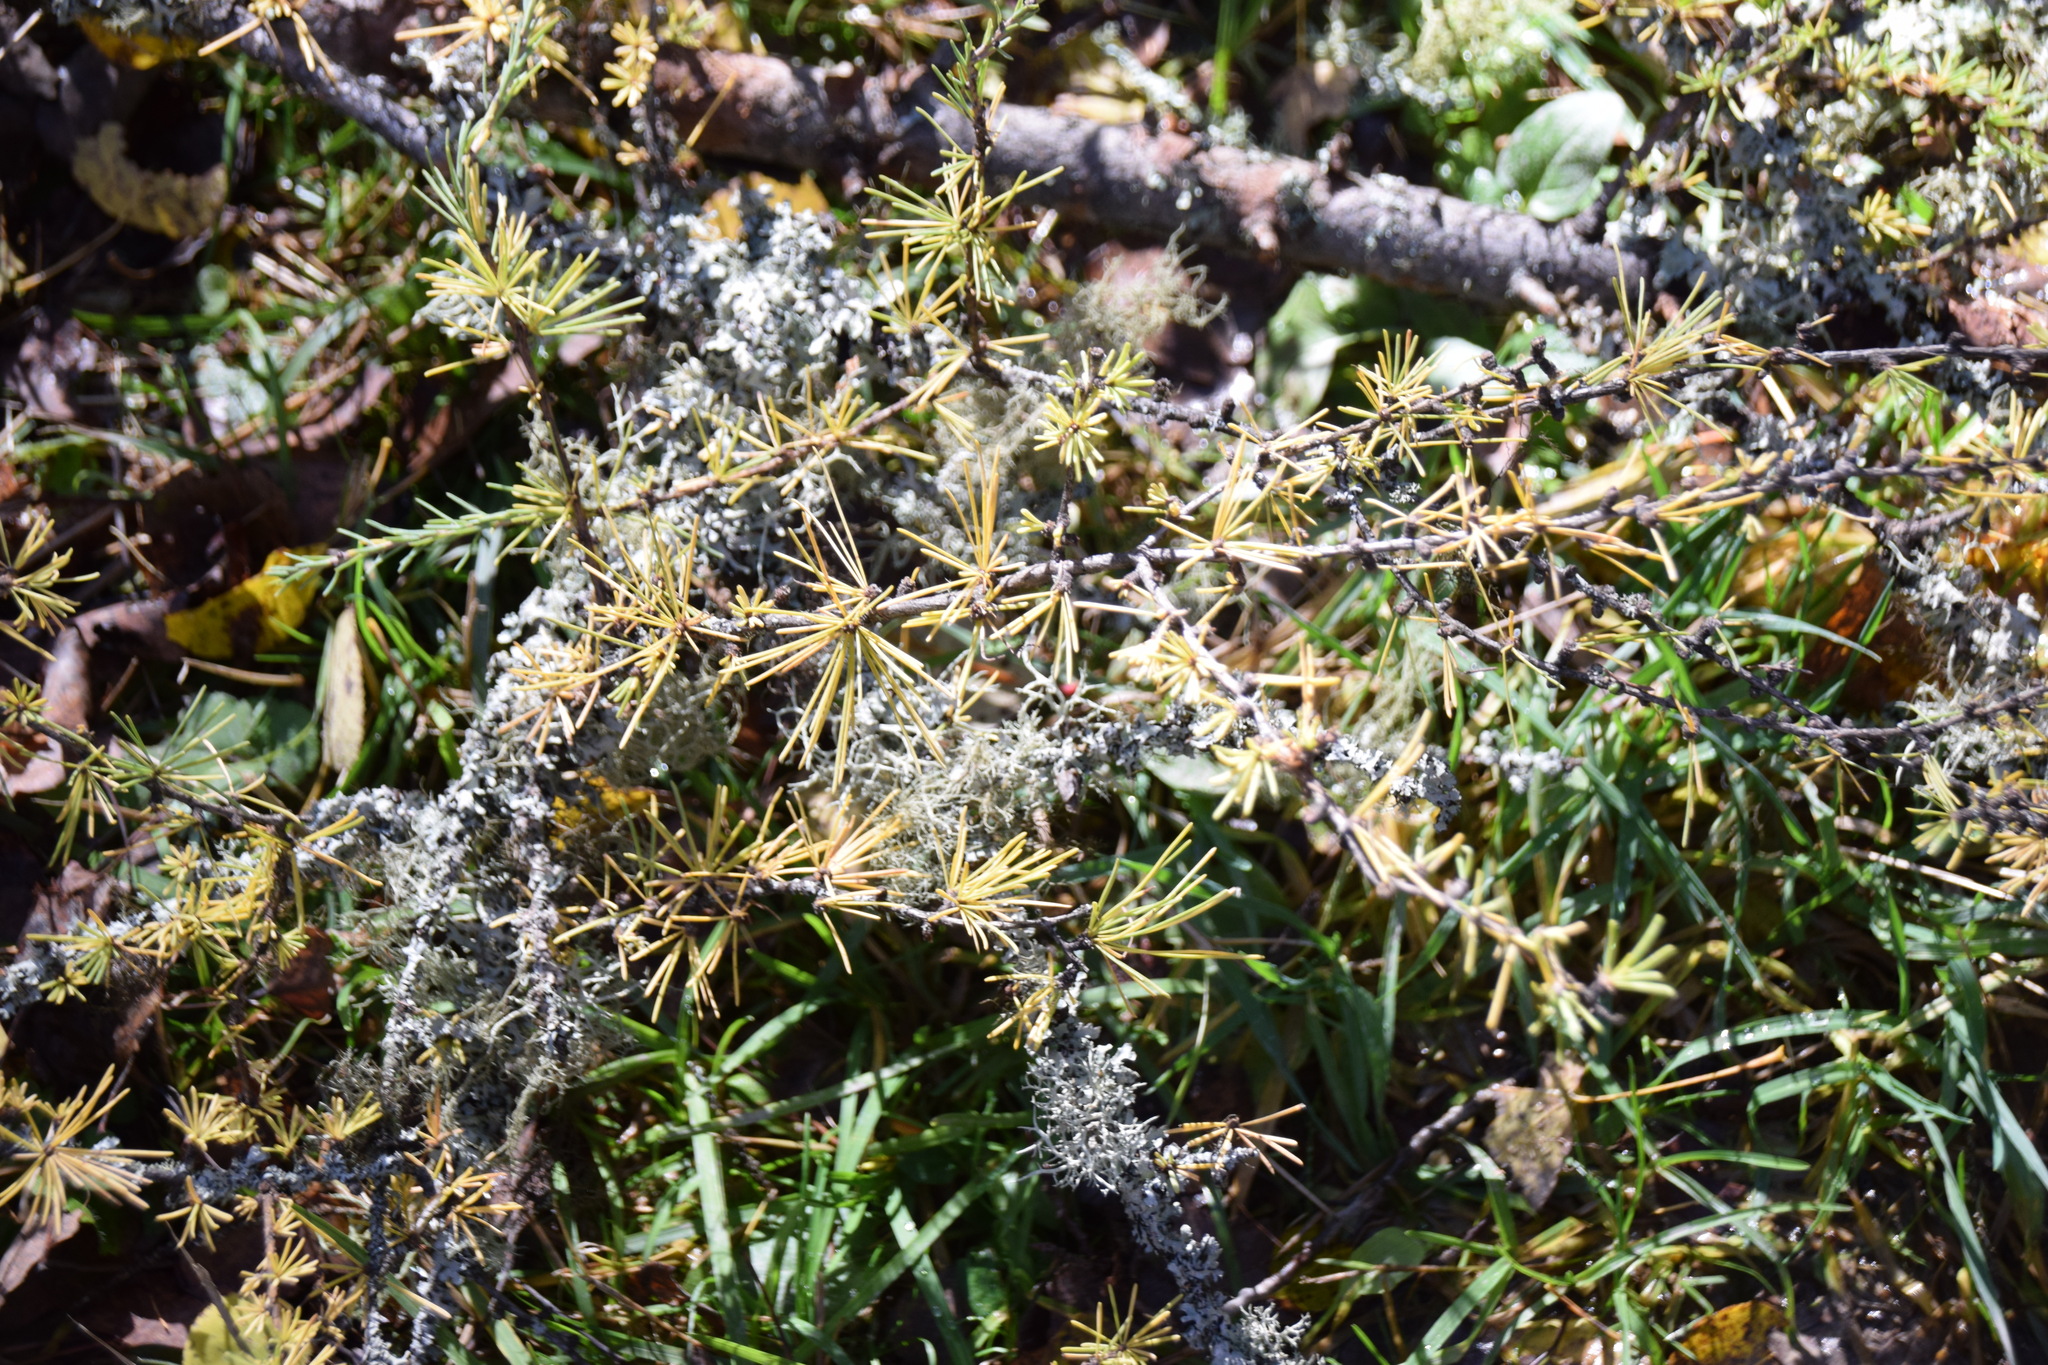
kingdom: Plantae
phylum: Tracheophyta
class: Pinopsida
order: Pinales
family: Pinaceae
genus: Larix
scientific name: Larix laricina
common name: American larch
